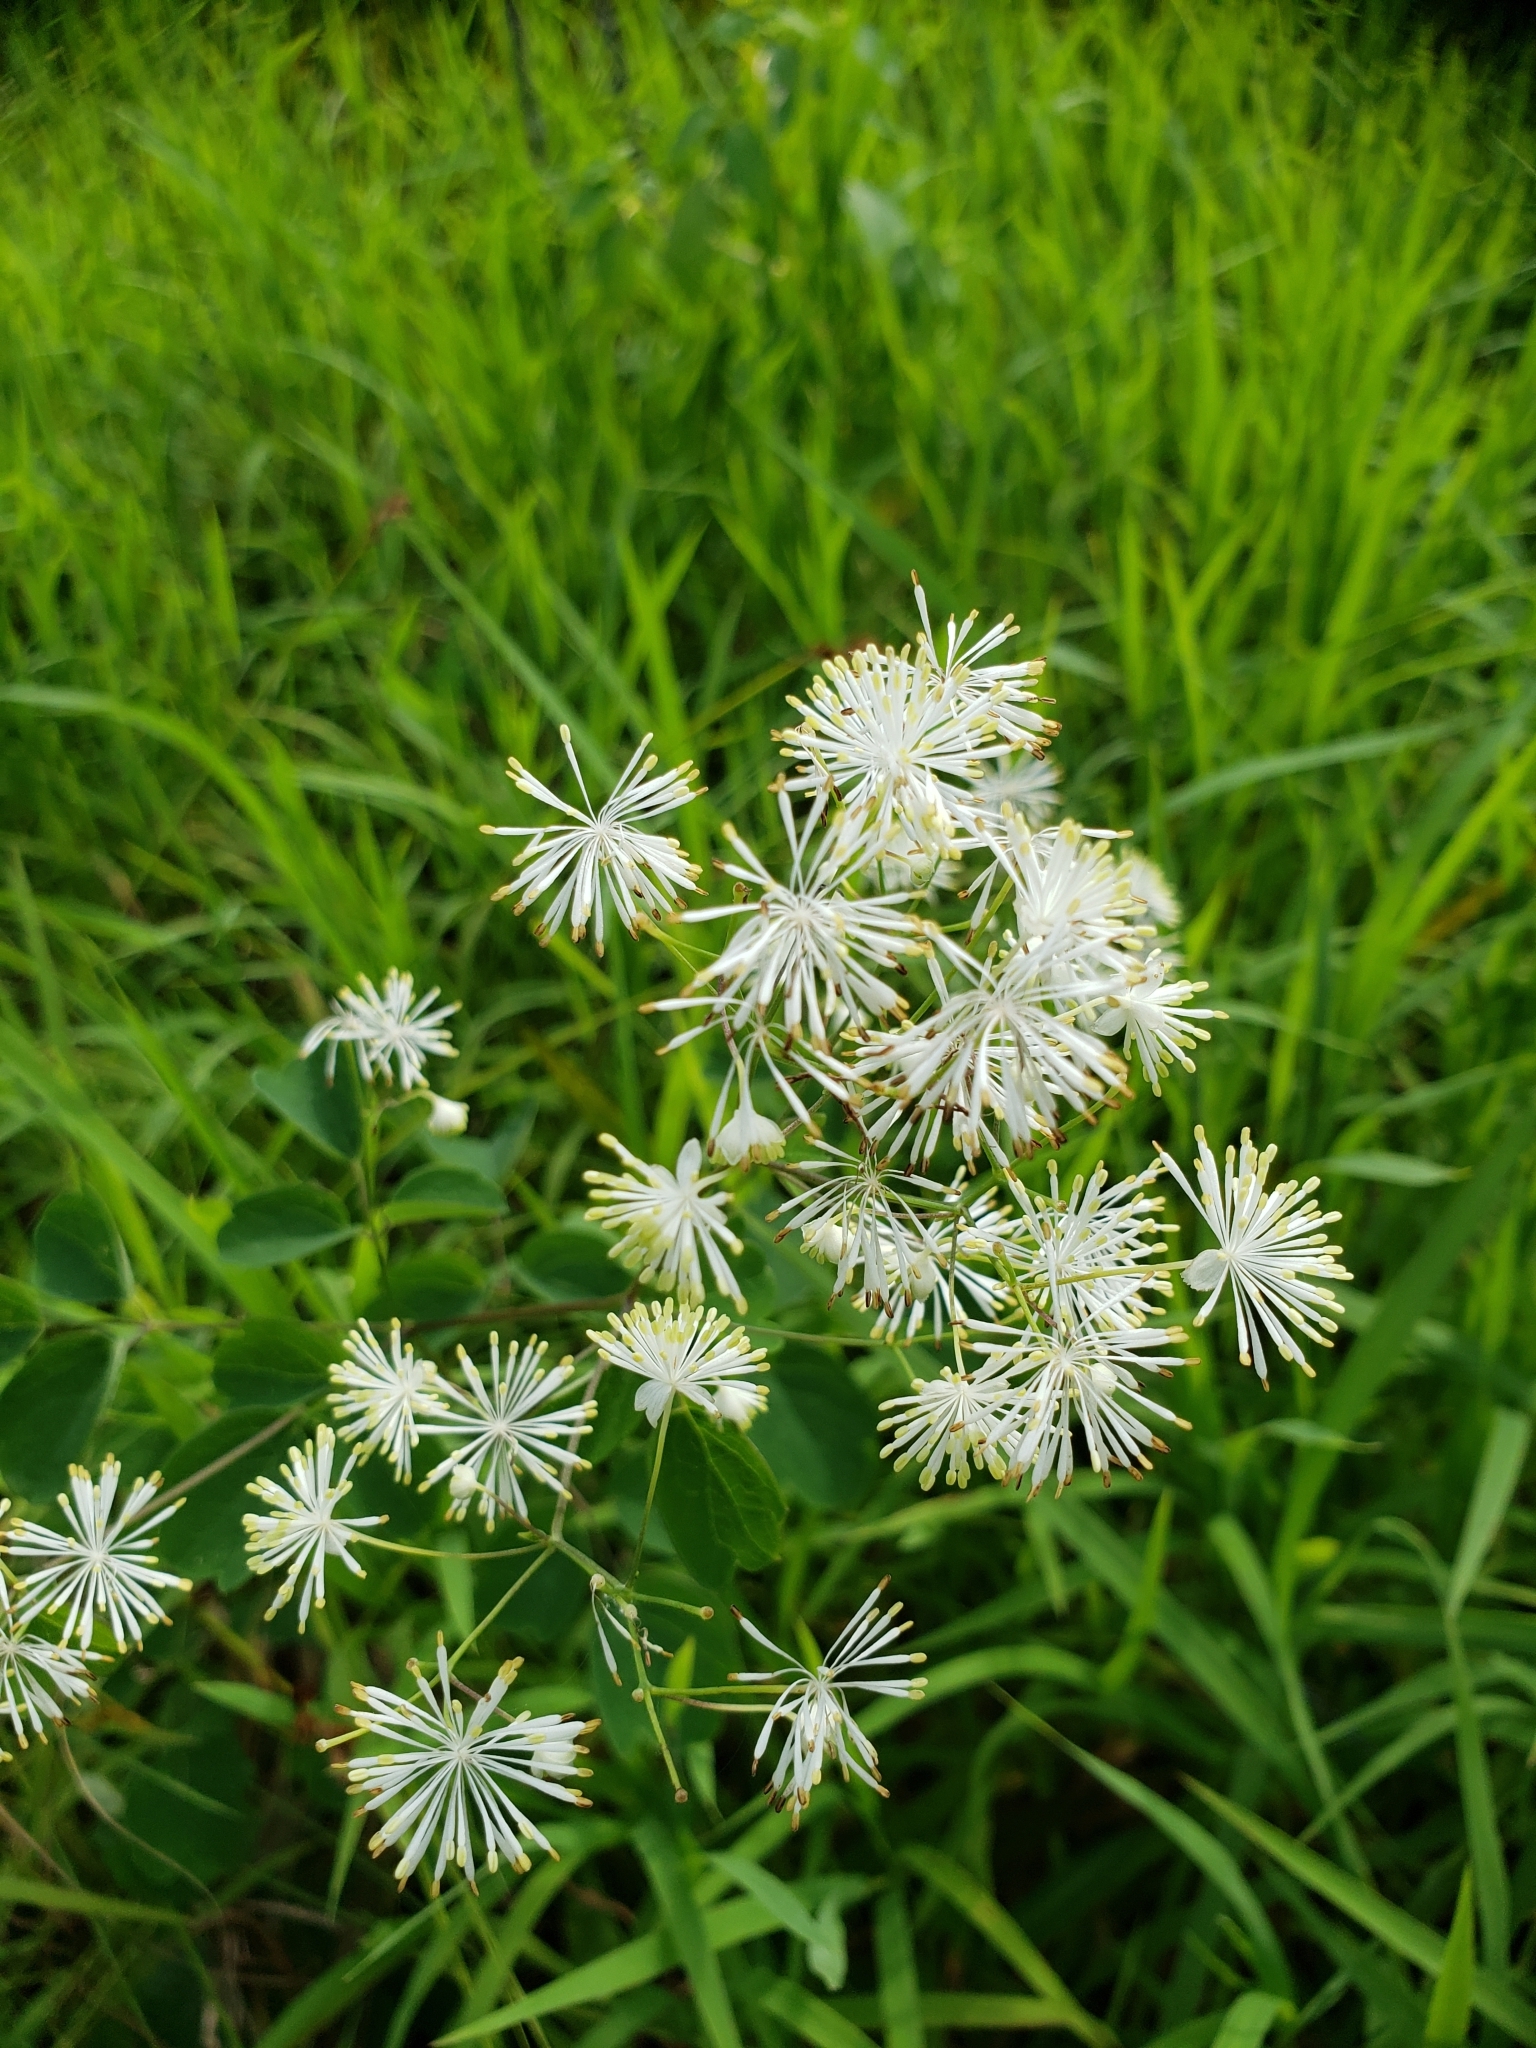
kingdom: Plantae
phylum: Tracheophyta
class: Magnoliopsida
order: Ranunculales
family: Ranunculaceae
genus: Thalictrum
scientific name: Thalictrum pubescens
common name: King-of-the-meadow
